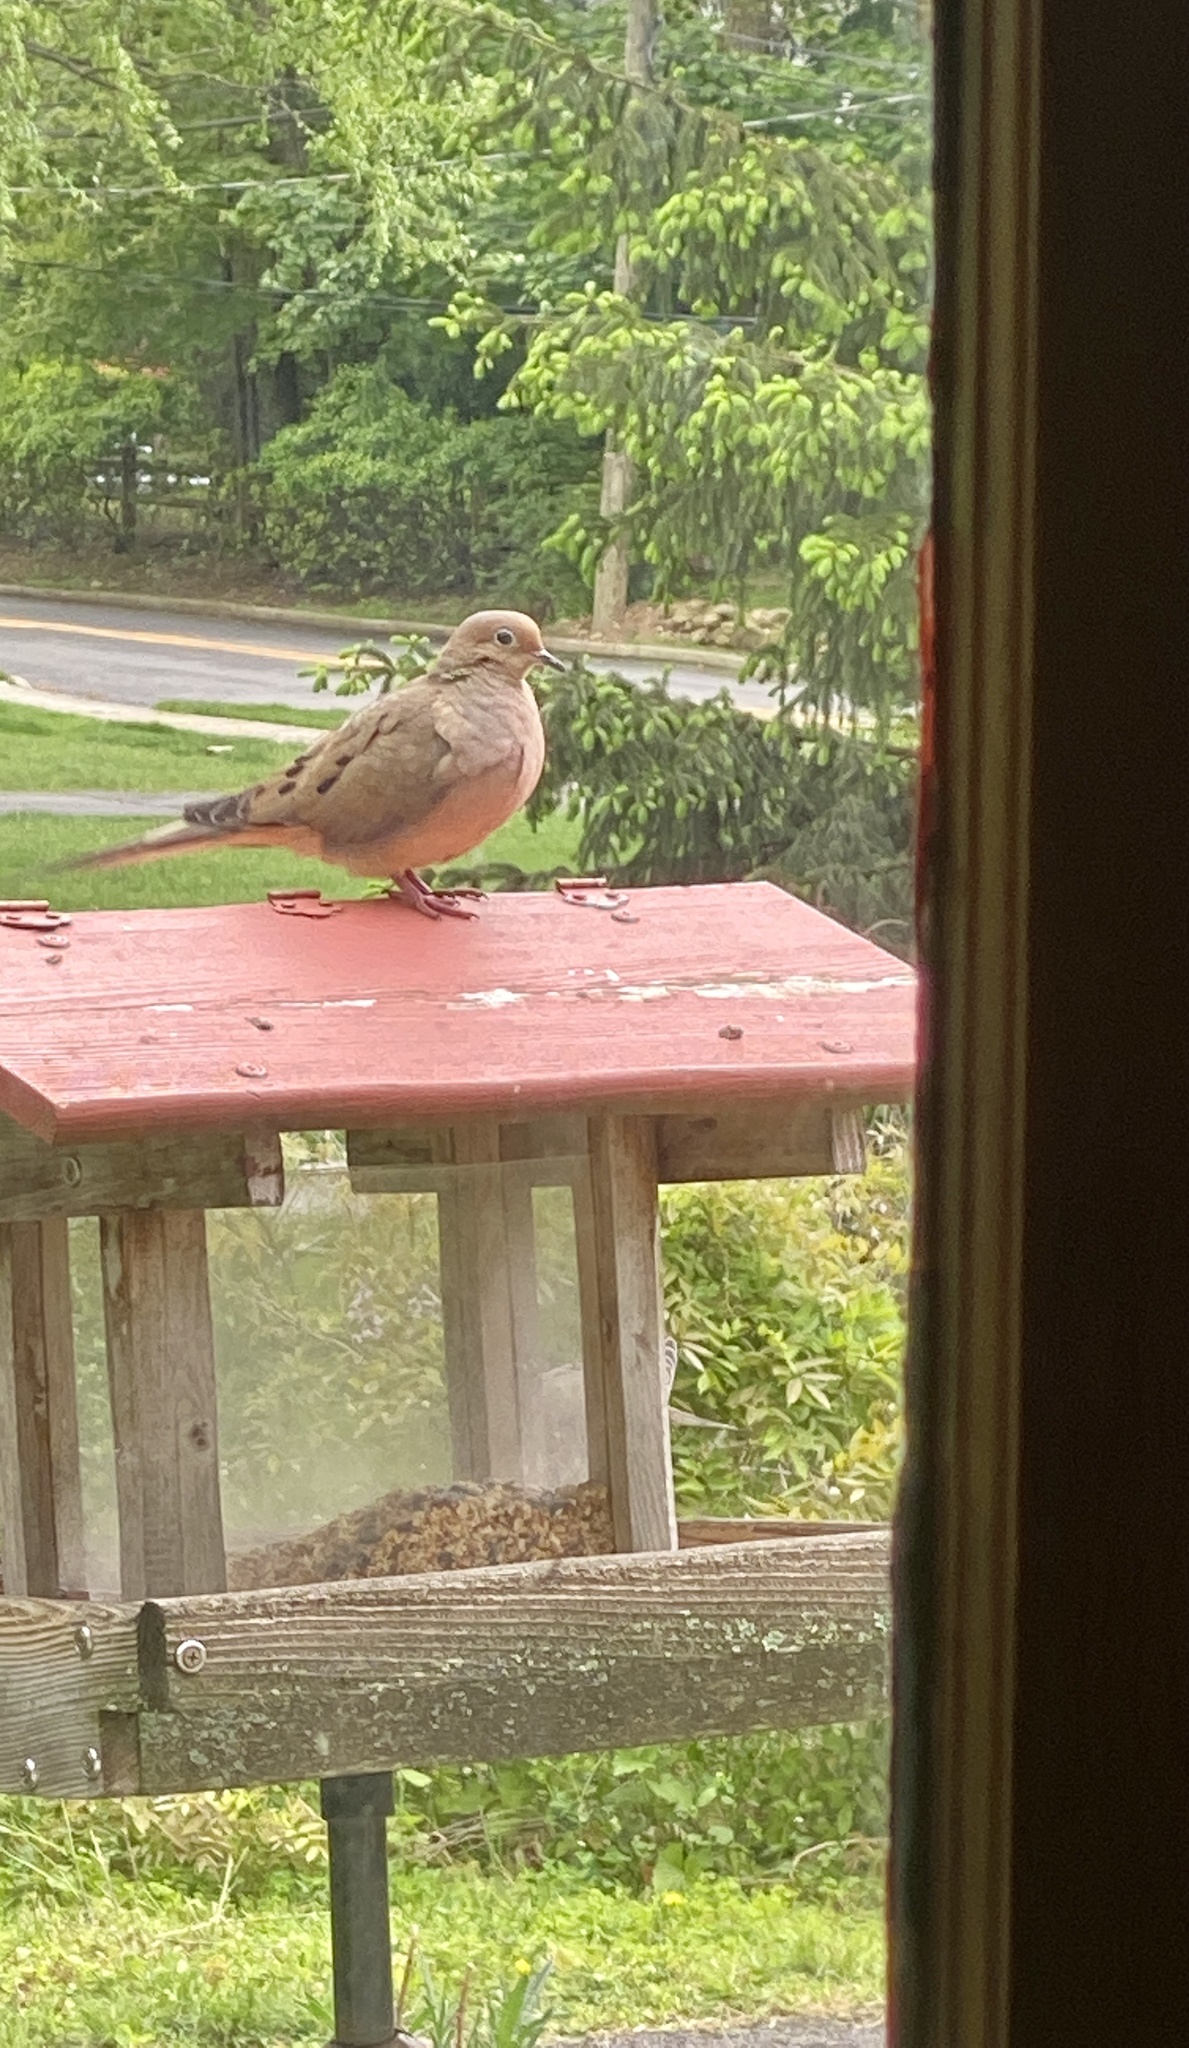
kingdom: Animalia
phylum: Chordata
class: Aves
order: Columbiformes
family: Columbidae
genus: Zenaida
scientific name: Zenaida macroura
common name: Mourning dove
